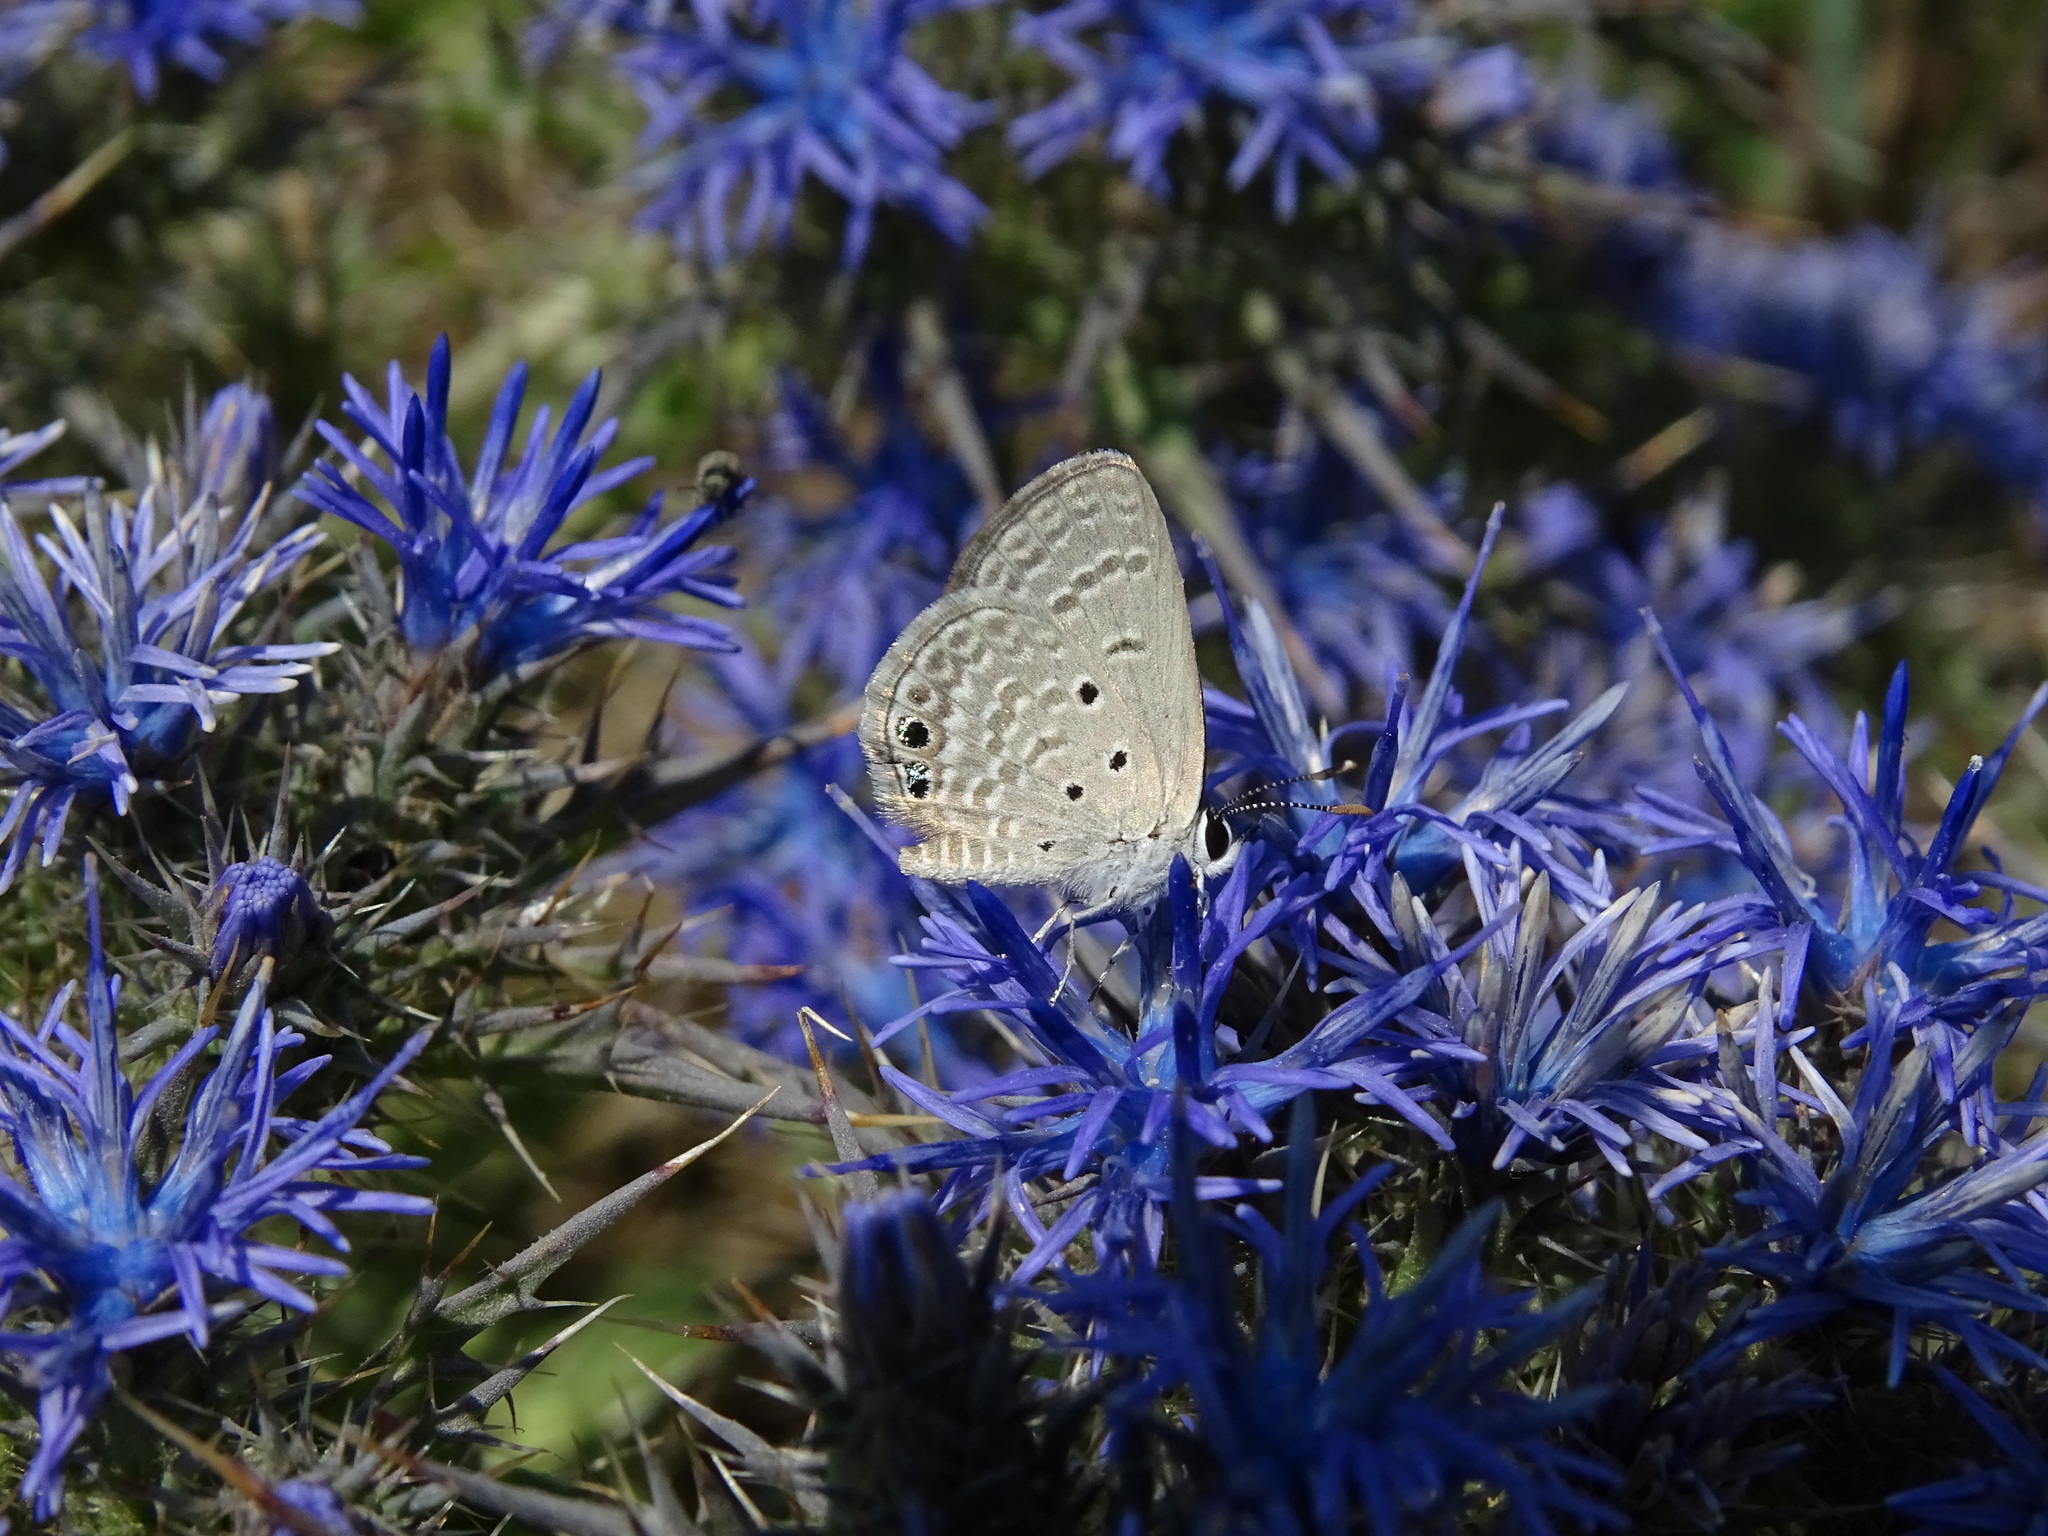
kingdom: Animalia
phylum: Arthropoda
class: Insecta
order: Lepidoptera
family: Lycaenidae
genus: Luthrodes
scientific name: Luthrodes galba
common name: Small desert blue
